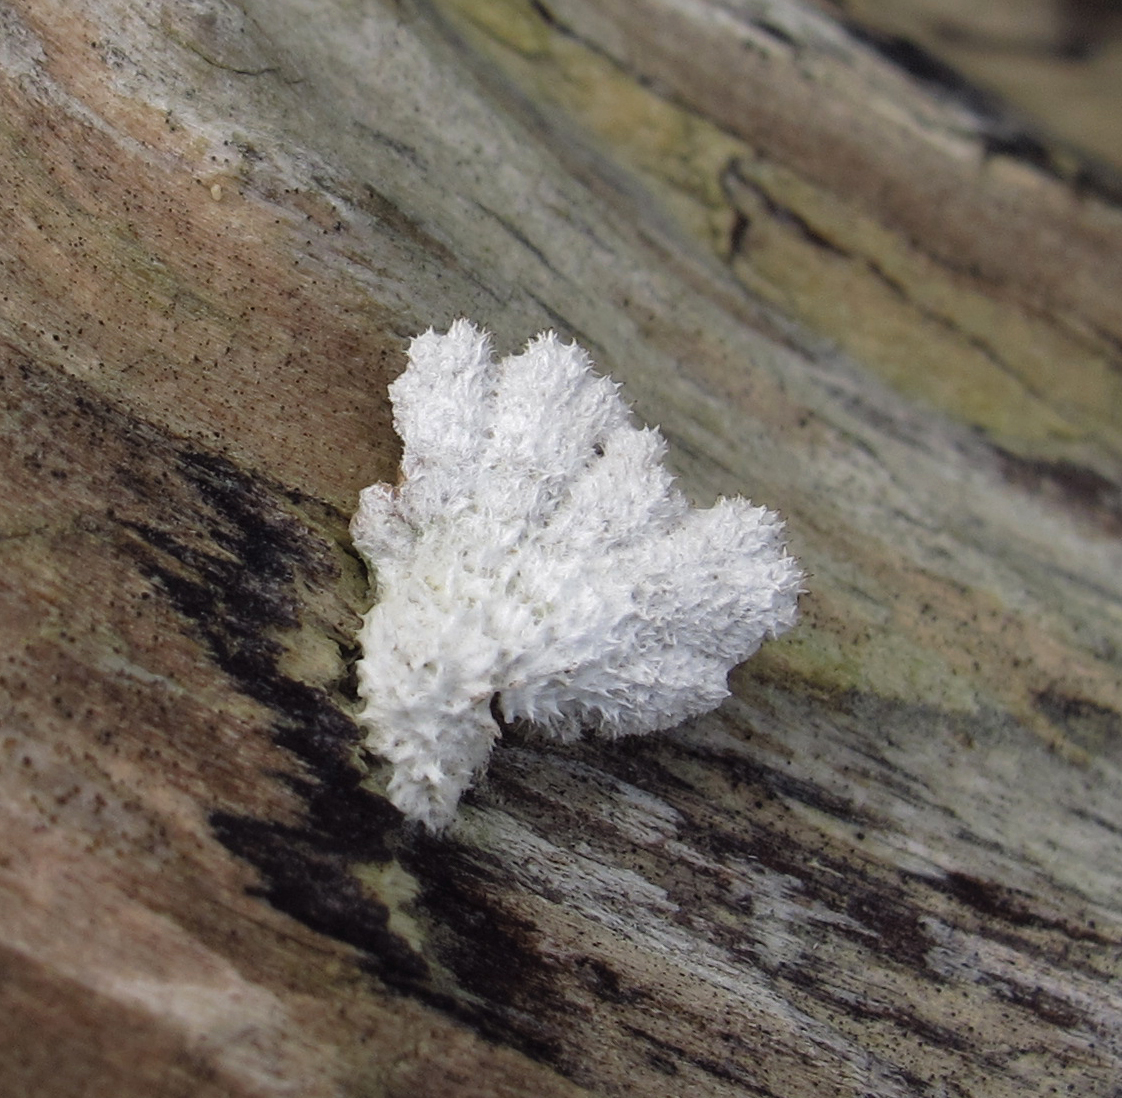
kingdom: Fungi
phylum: Basidiomycota
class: Agaricomycetes
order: Agaricales
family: Schizophyllaceae
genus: Schizophyllum
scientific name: Schizophyllum commune
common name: Common porecrust
